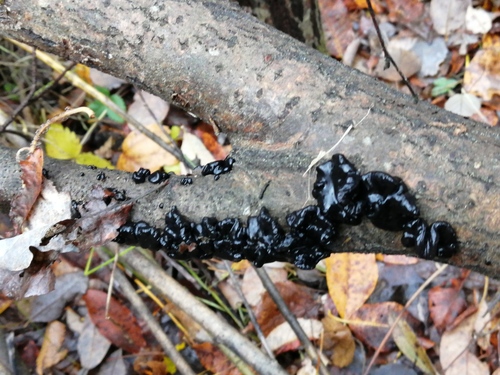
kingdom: Fungi
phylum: Basidiomycota
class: Agaricomycetes
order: Auriculariales
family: Auriculariaceae
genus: Exidia
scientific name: Exidia glandulosa
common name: Witches' butter
